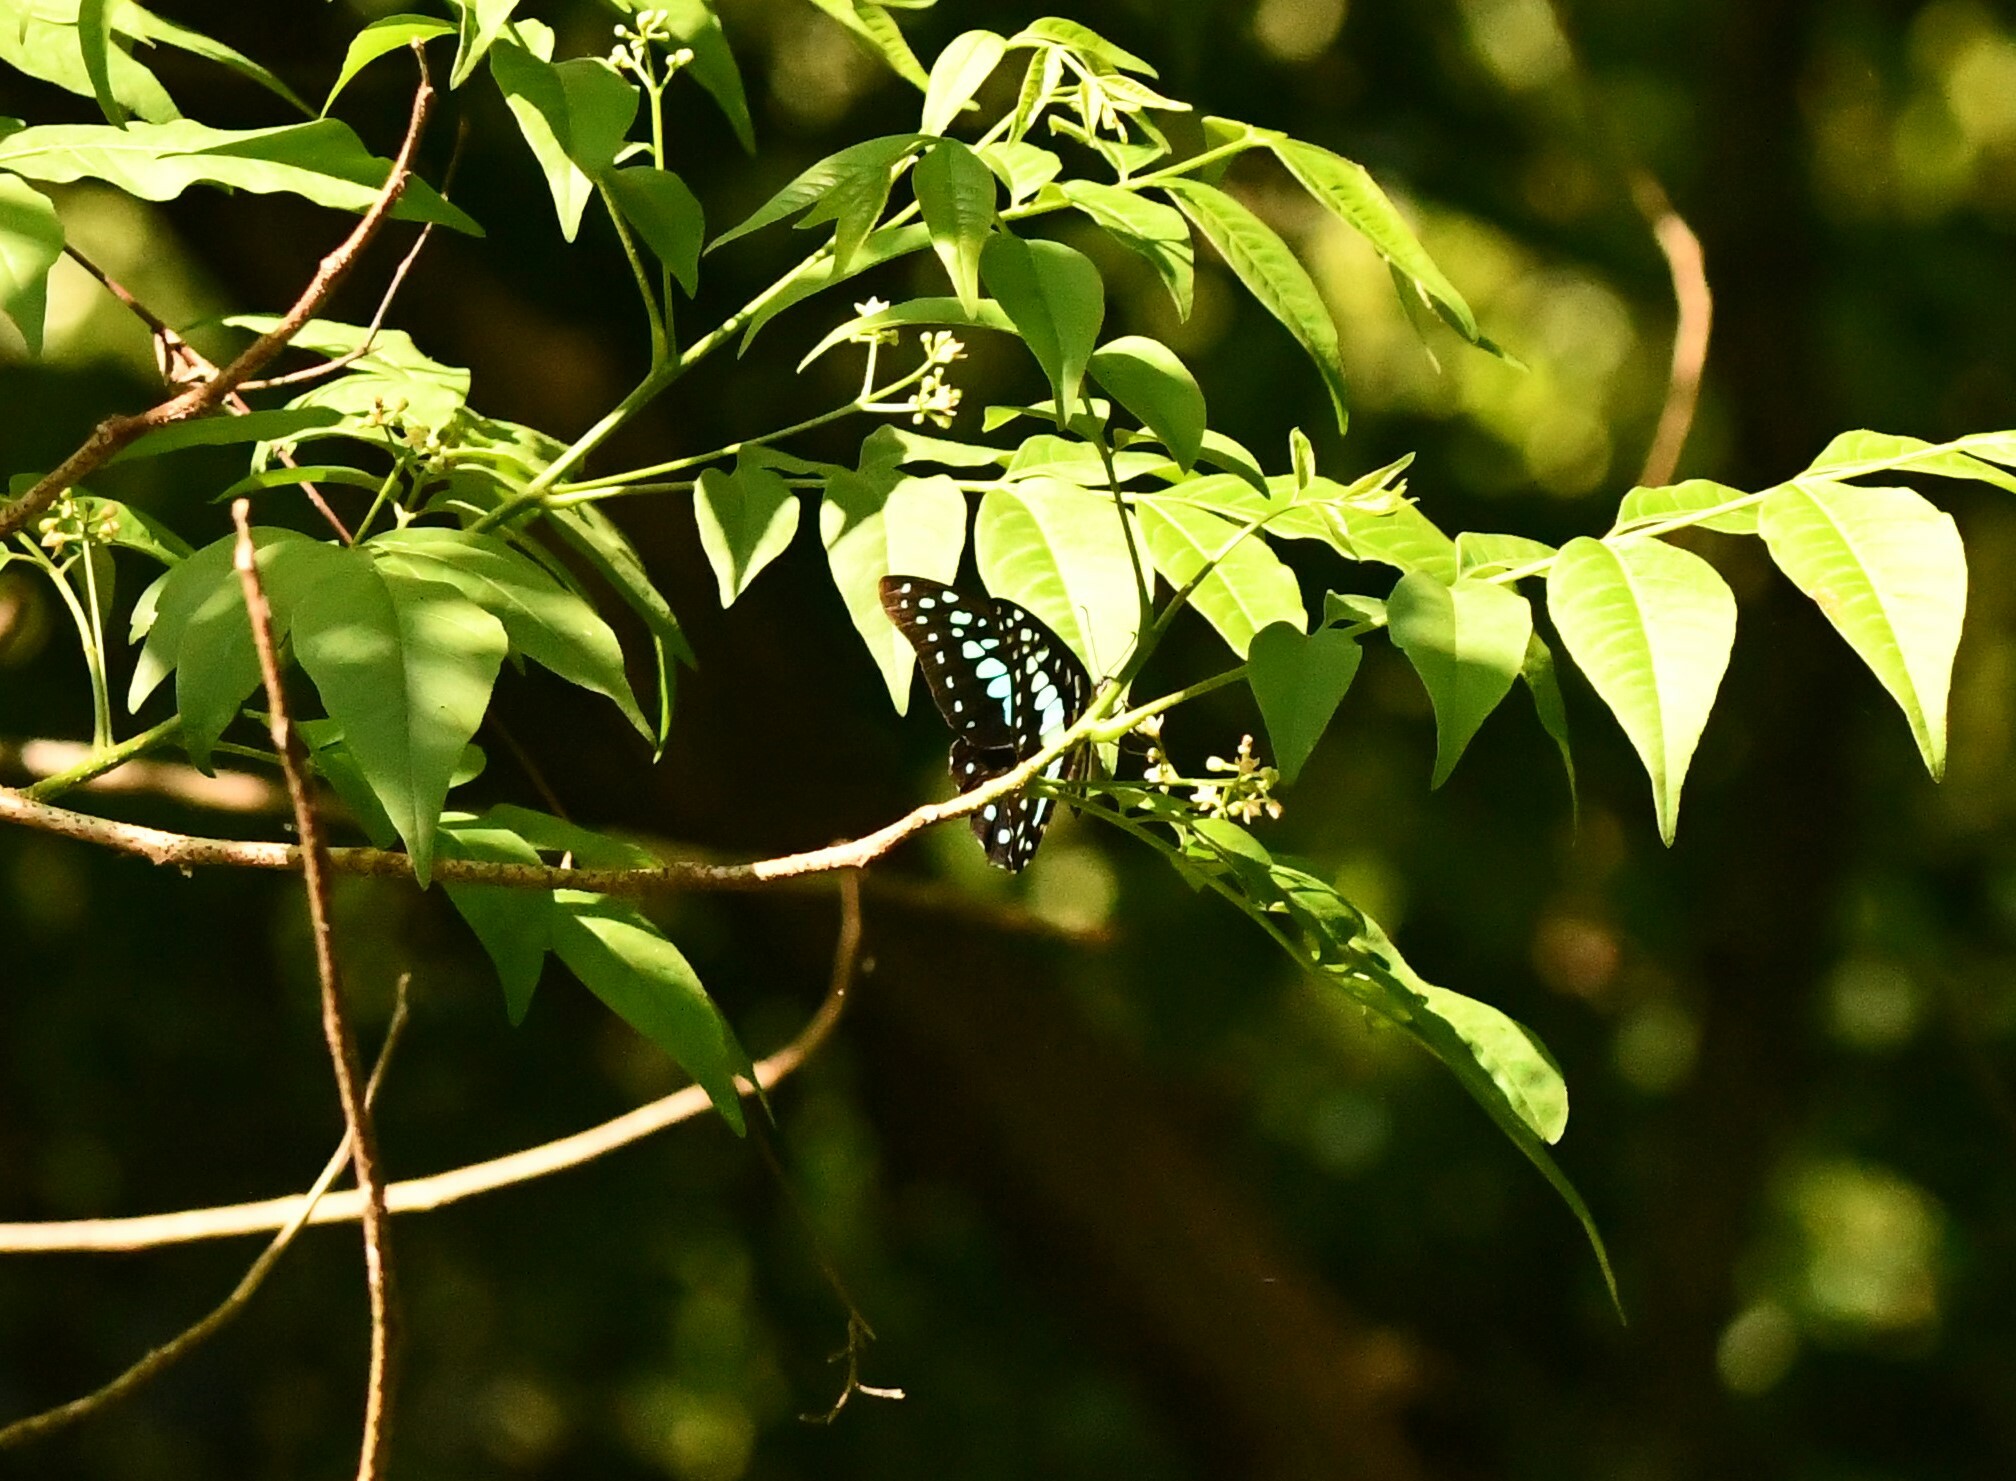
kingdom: Animalia
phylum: Arthropoda
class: Insecta
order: Lepidoptera
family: Papilionidae
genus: Graphium
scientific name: Graphium doson
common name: Common jay
